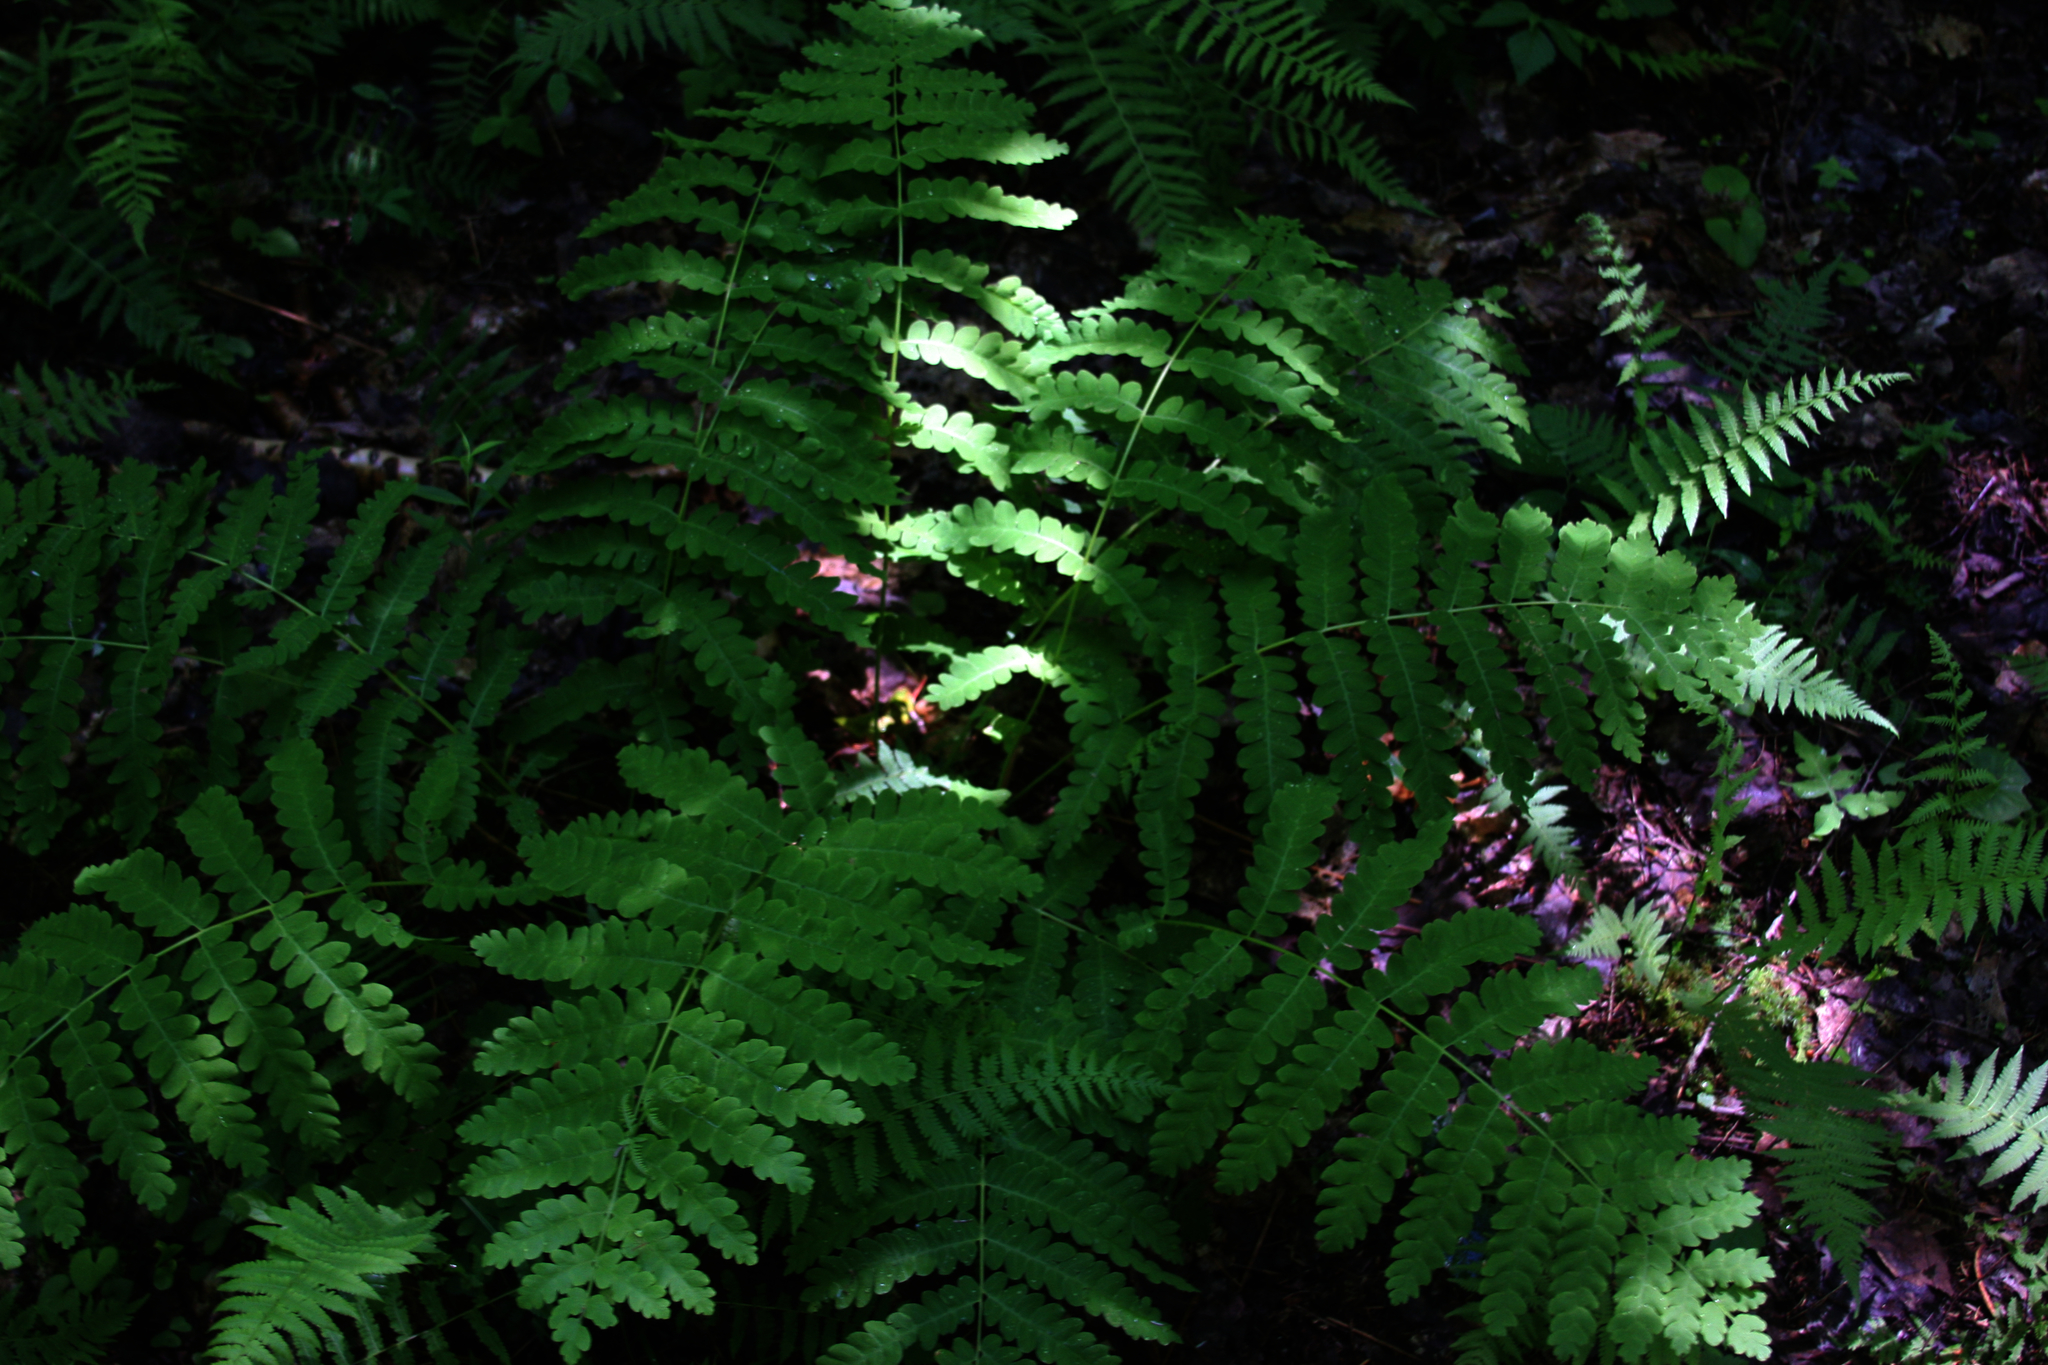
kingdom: Plantae
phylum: Tracheophyta
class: Polypodiopsida
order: Osmundales
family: Osmundaceae
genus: Claytosmunda
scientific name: Claytosmunda claytoniana
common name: Clayton's fern
